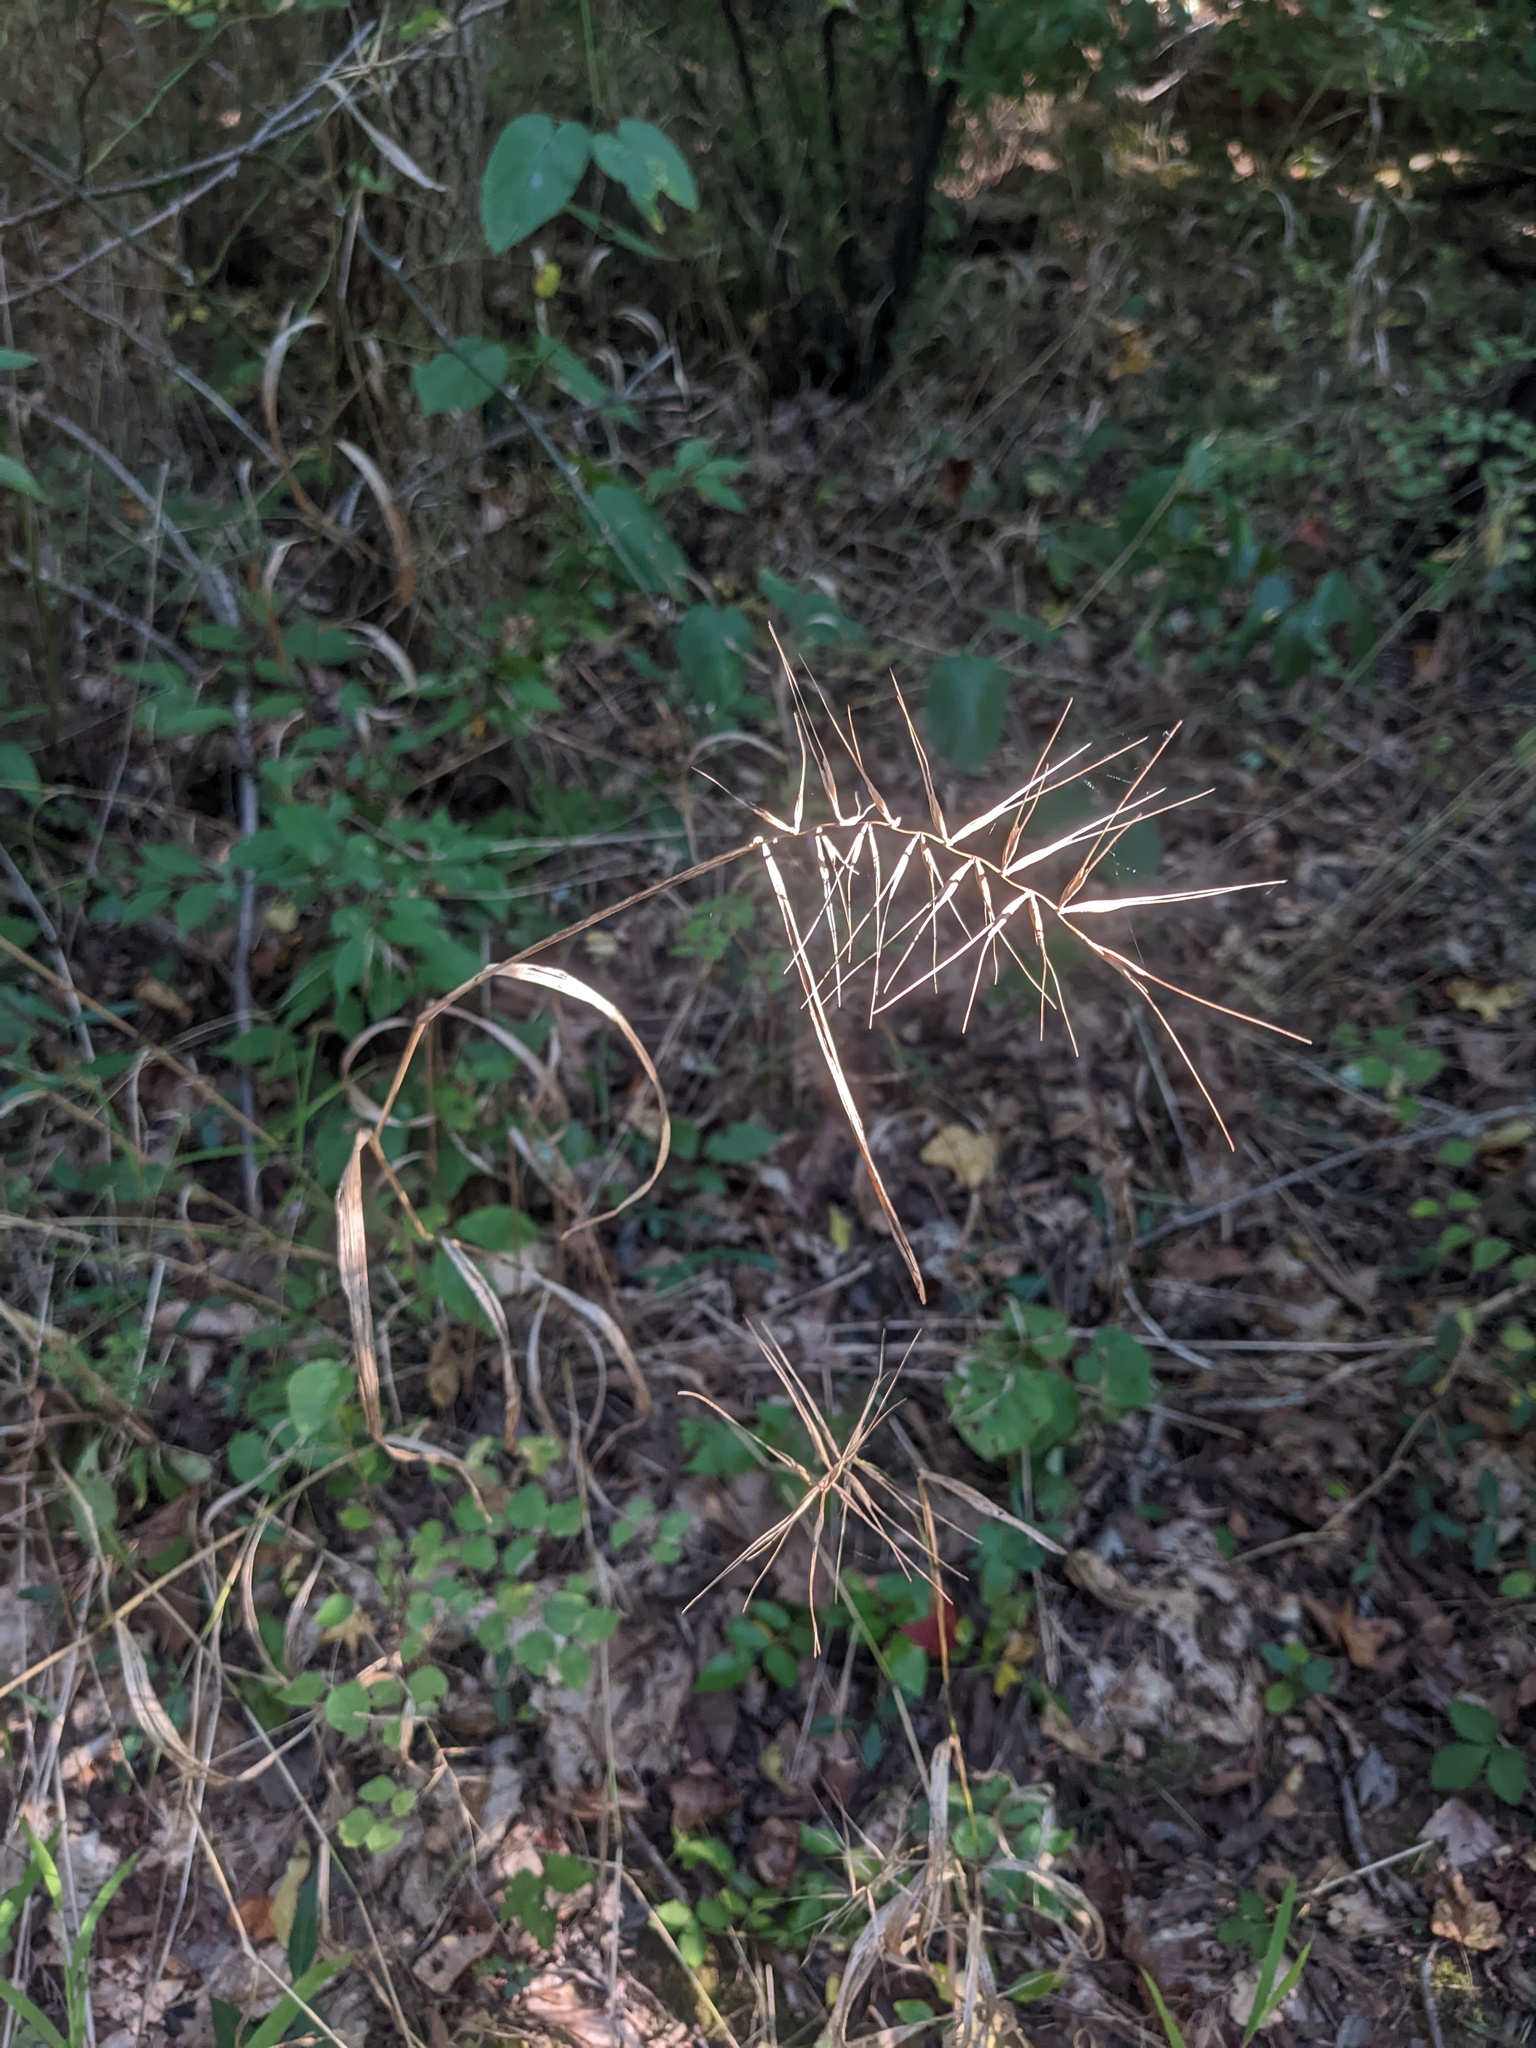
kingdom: Plantae
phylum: Tracheophyta
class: Liliopsida
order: Poales
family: Poaceae
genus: Elymus
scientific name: Elymus hystrix
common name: Bottlebrush grass
